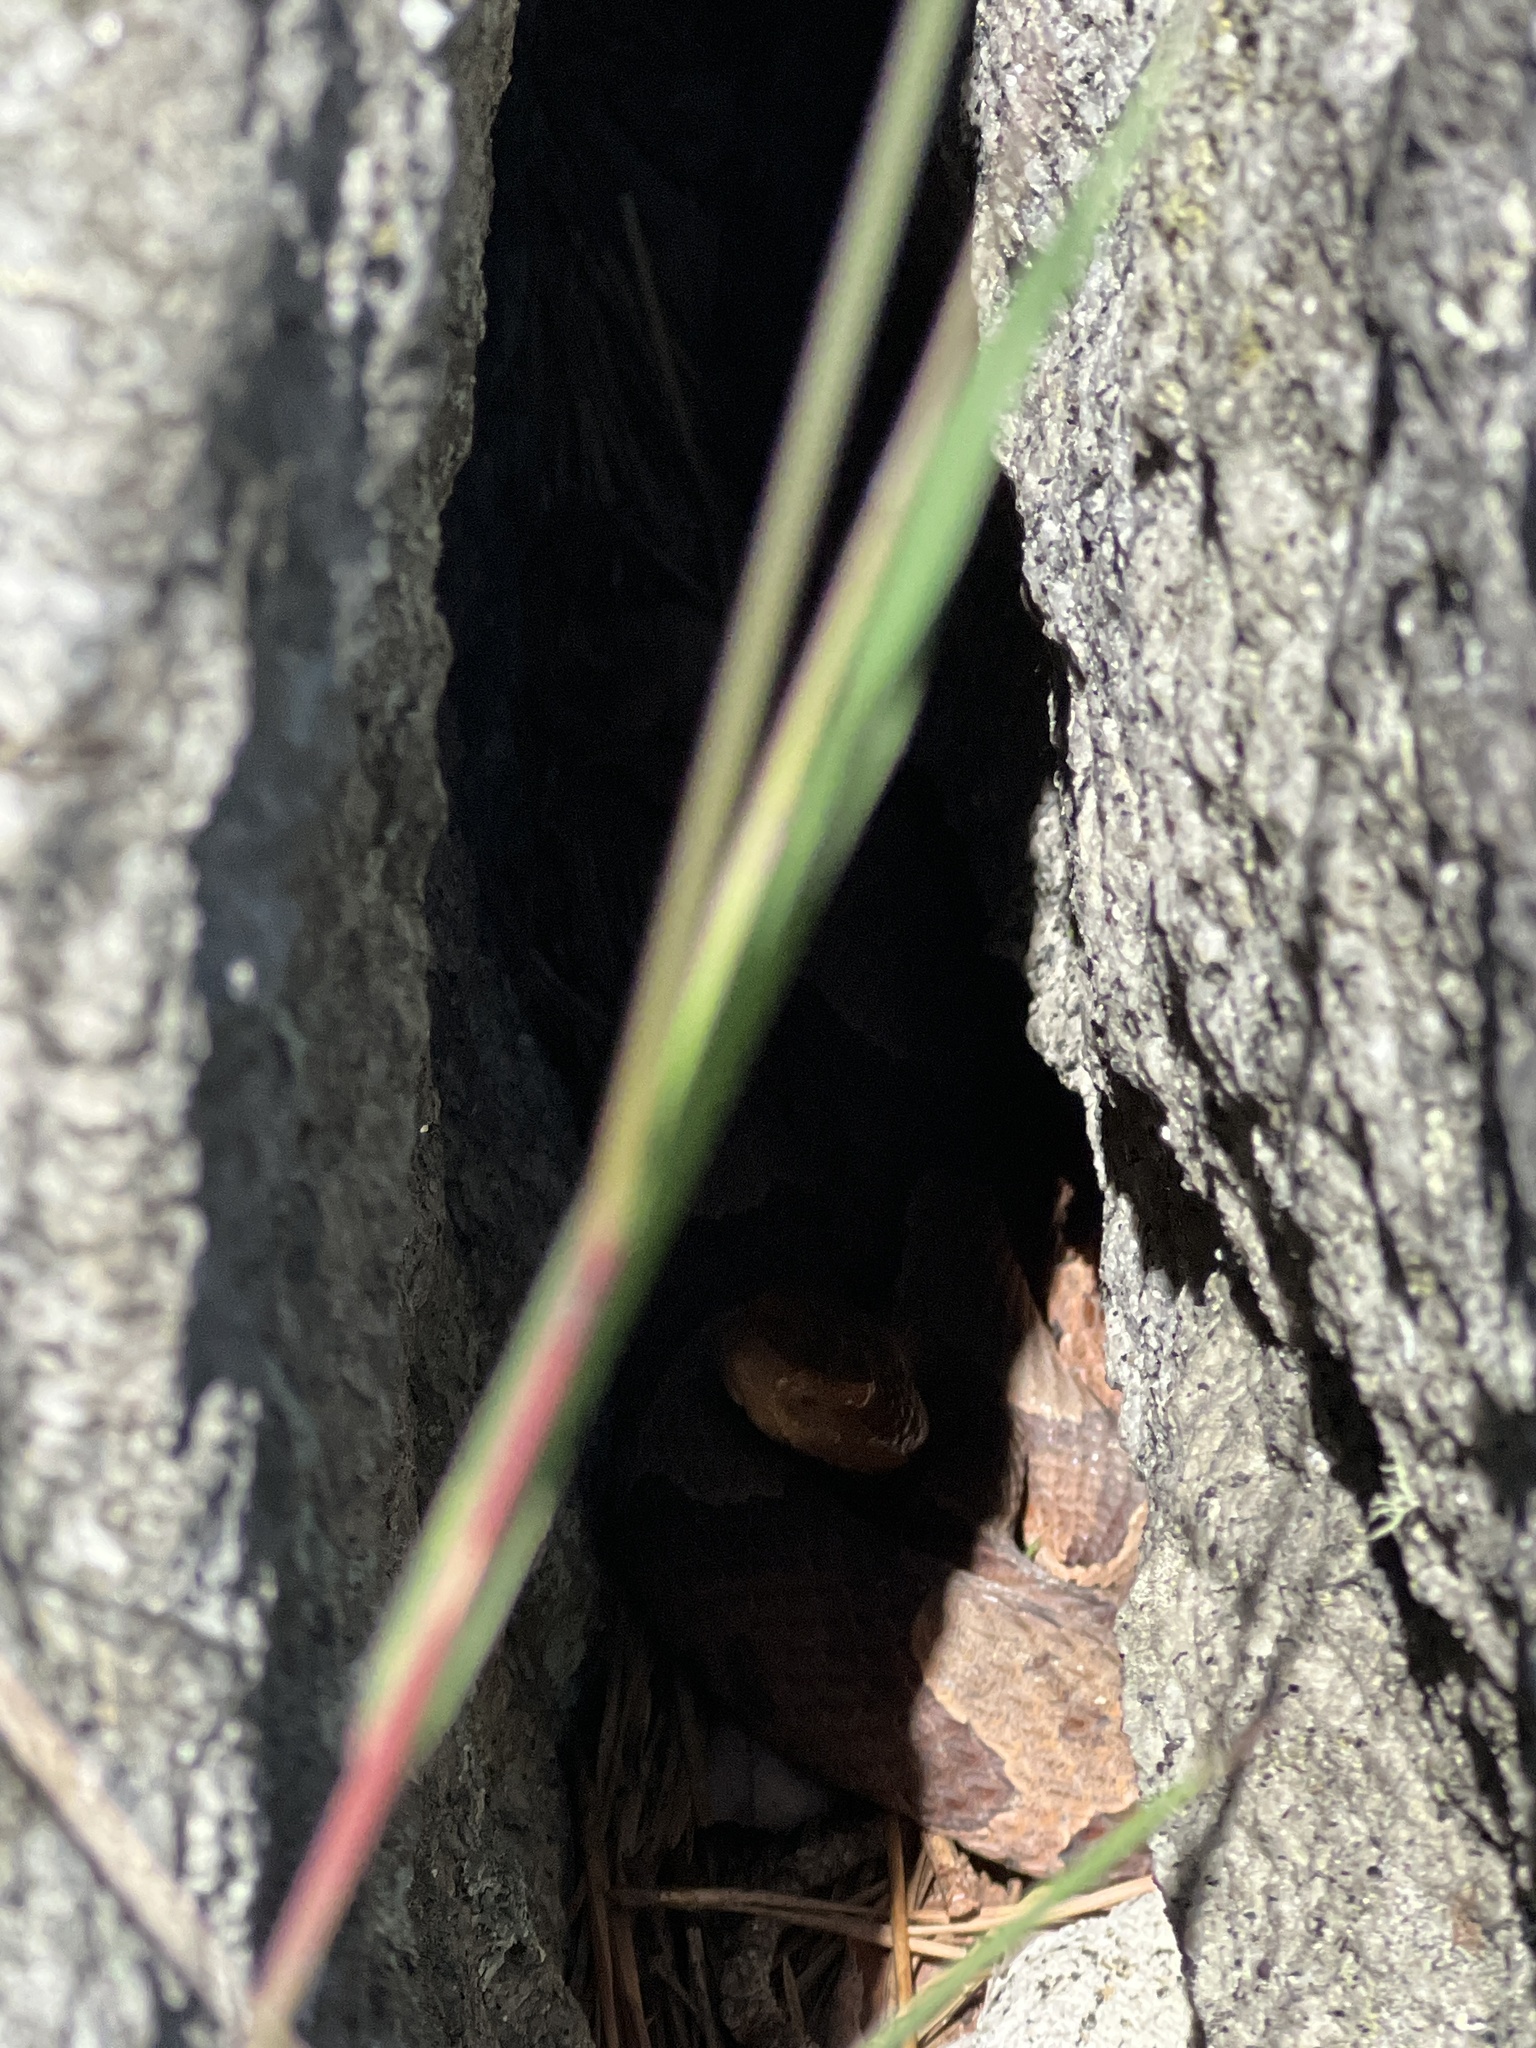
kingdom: Animalia
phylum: Chordata
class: Squamata
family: Viperidae
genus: Agkistrodon
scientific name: Agkistrodon contortrix
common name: Northern copperhead
